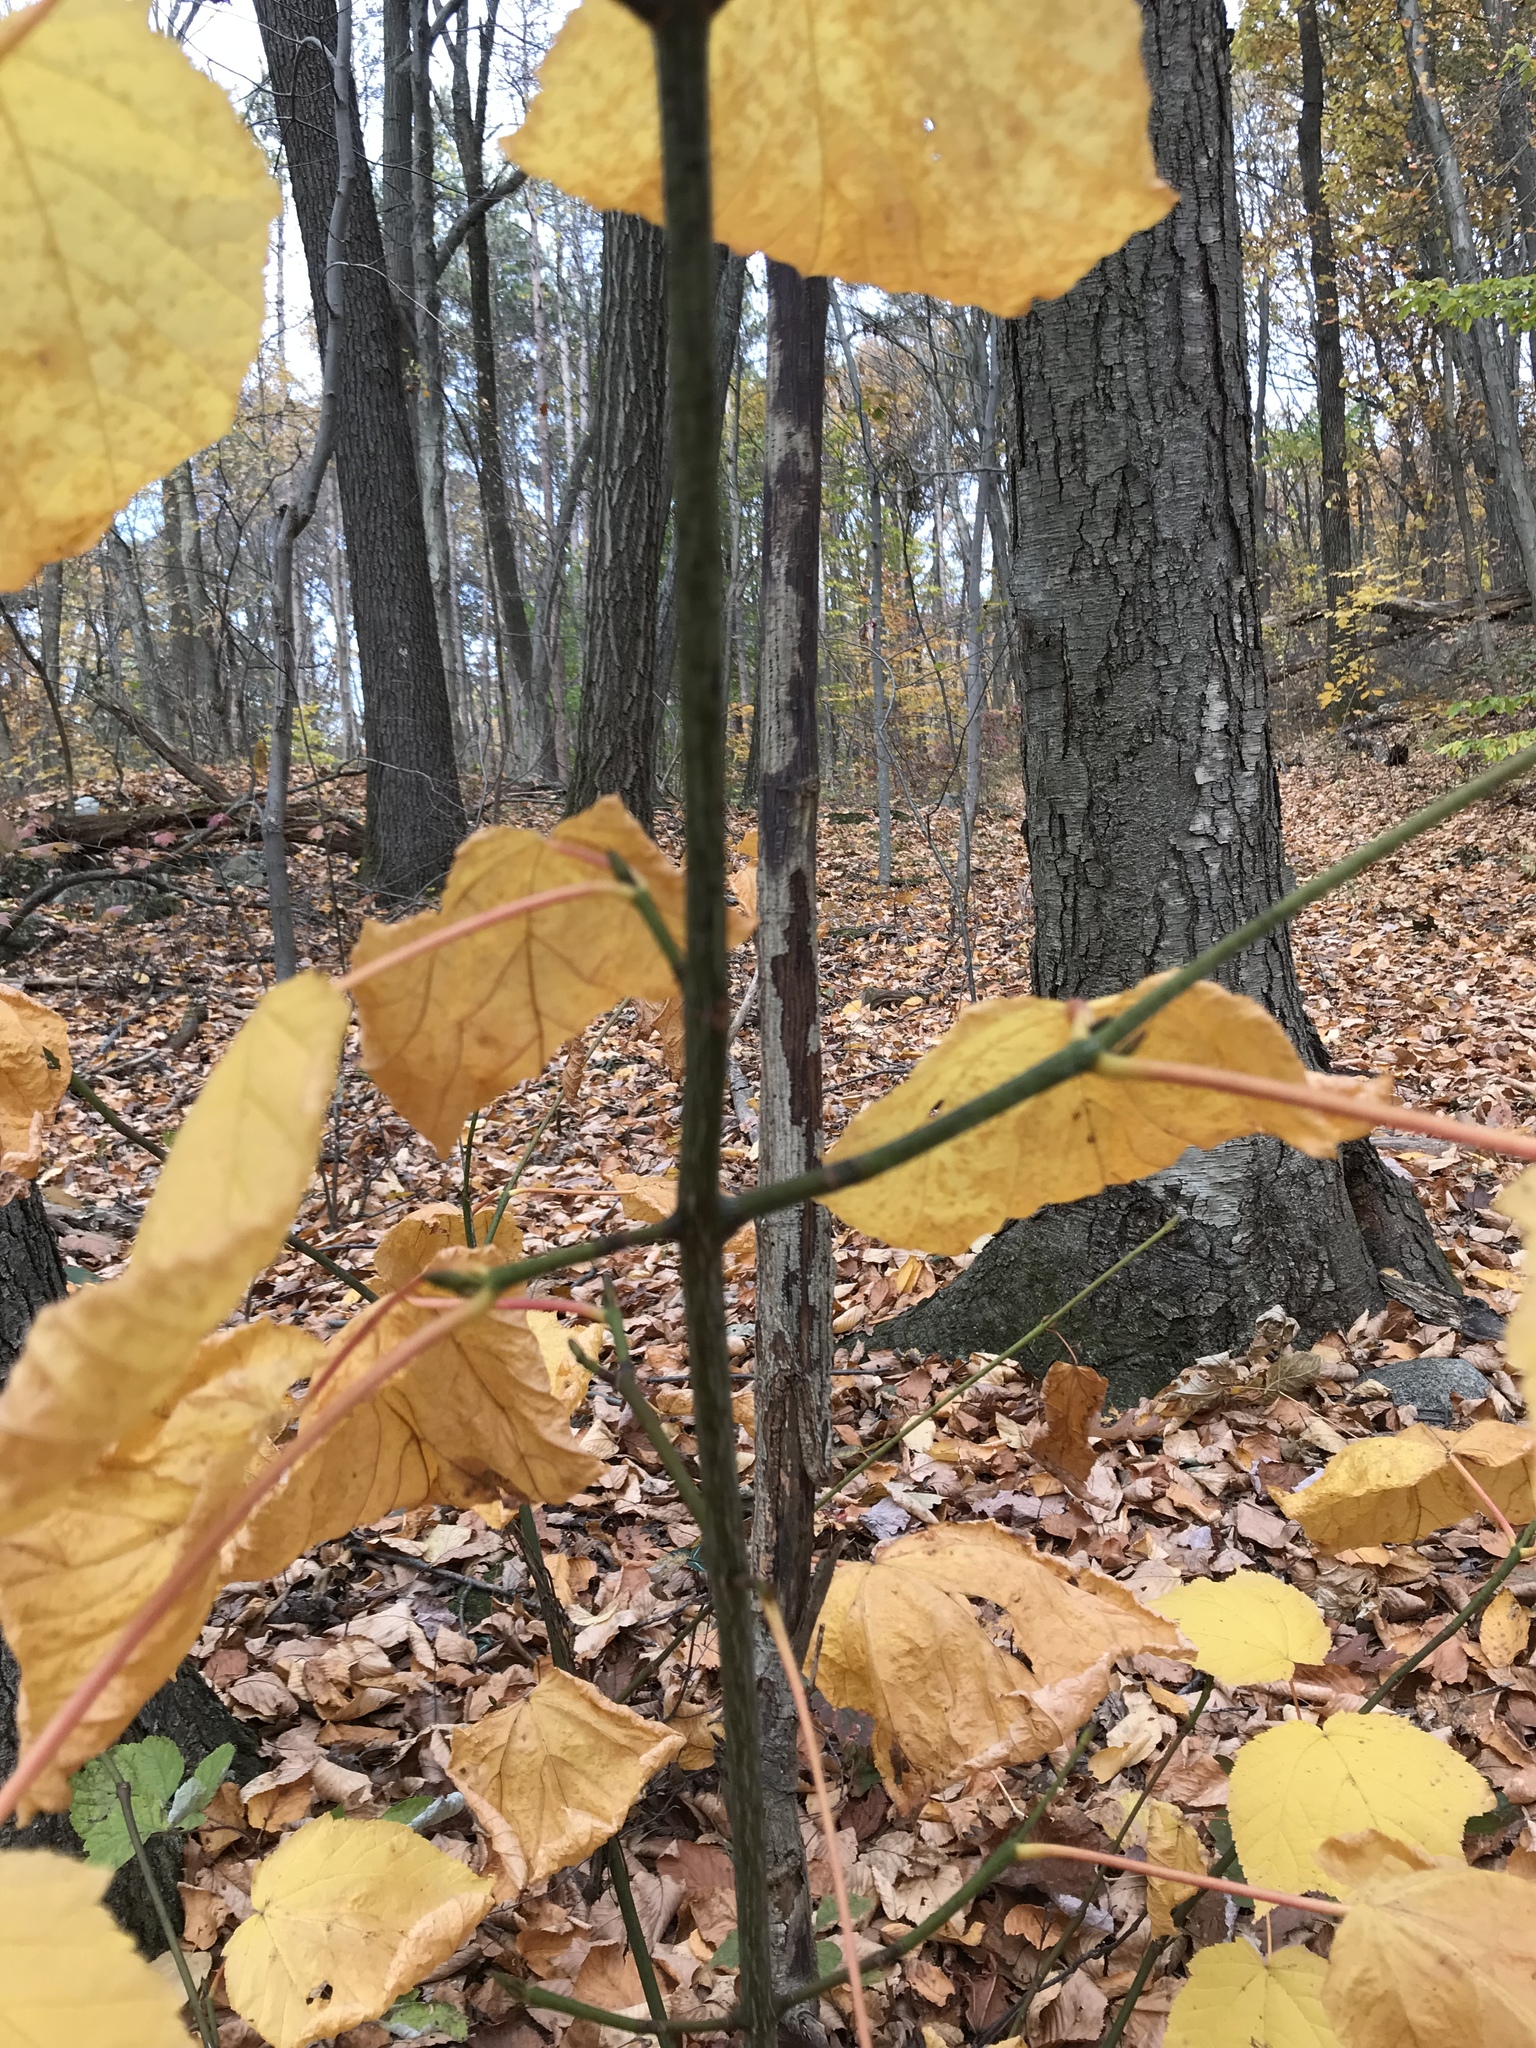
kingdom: Plantae
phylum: Tracheophyta
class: Magnoliopsida
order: Sapindales
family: Sapindaceae
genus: Acer
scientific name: Acer pensylvanicum
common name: Moosewood
